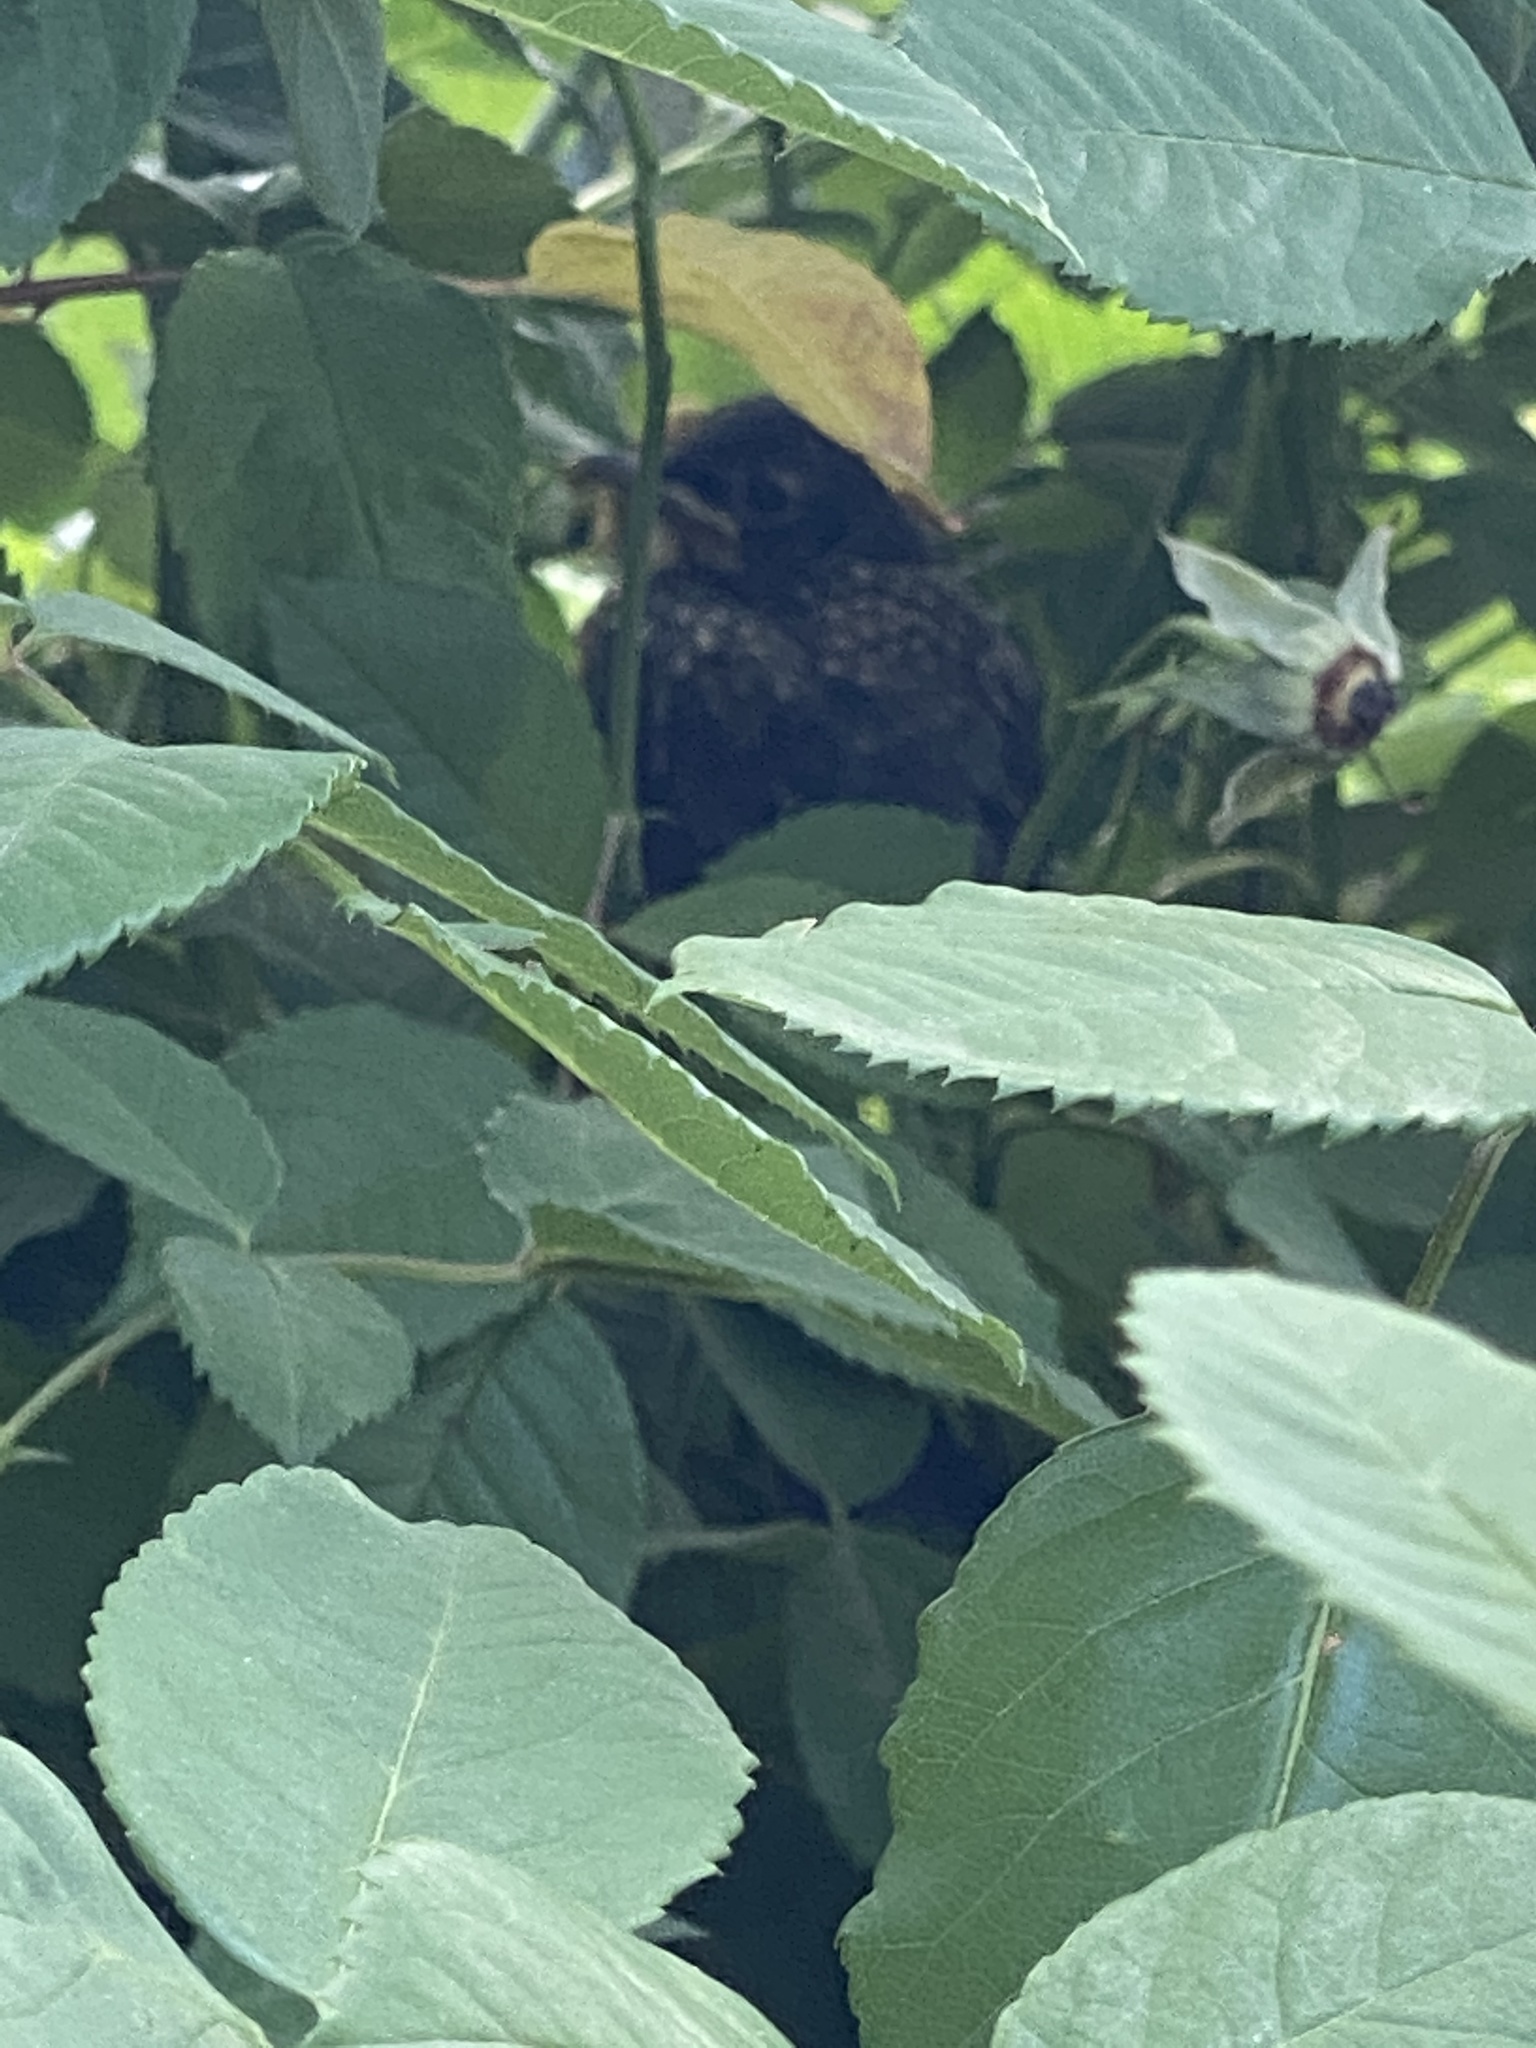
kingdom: Animalia
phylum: Chordata
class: Aves
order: Passeriformes
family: Turdidae
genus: Turdus
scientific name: Turdus migratorius
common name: American robin
